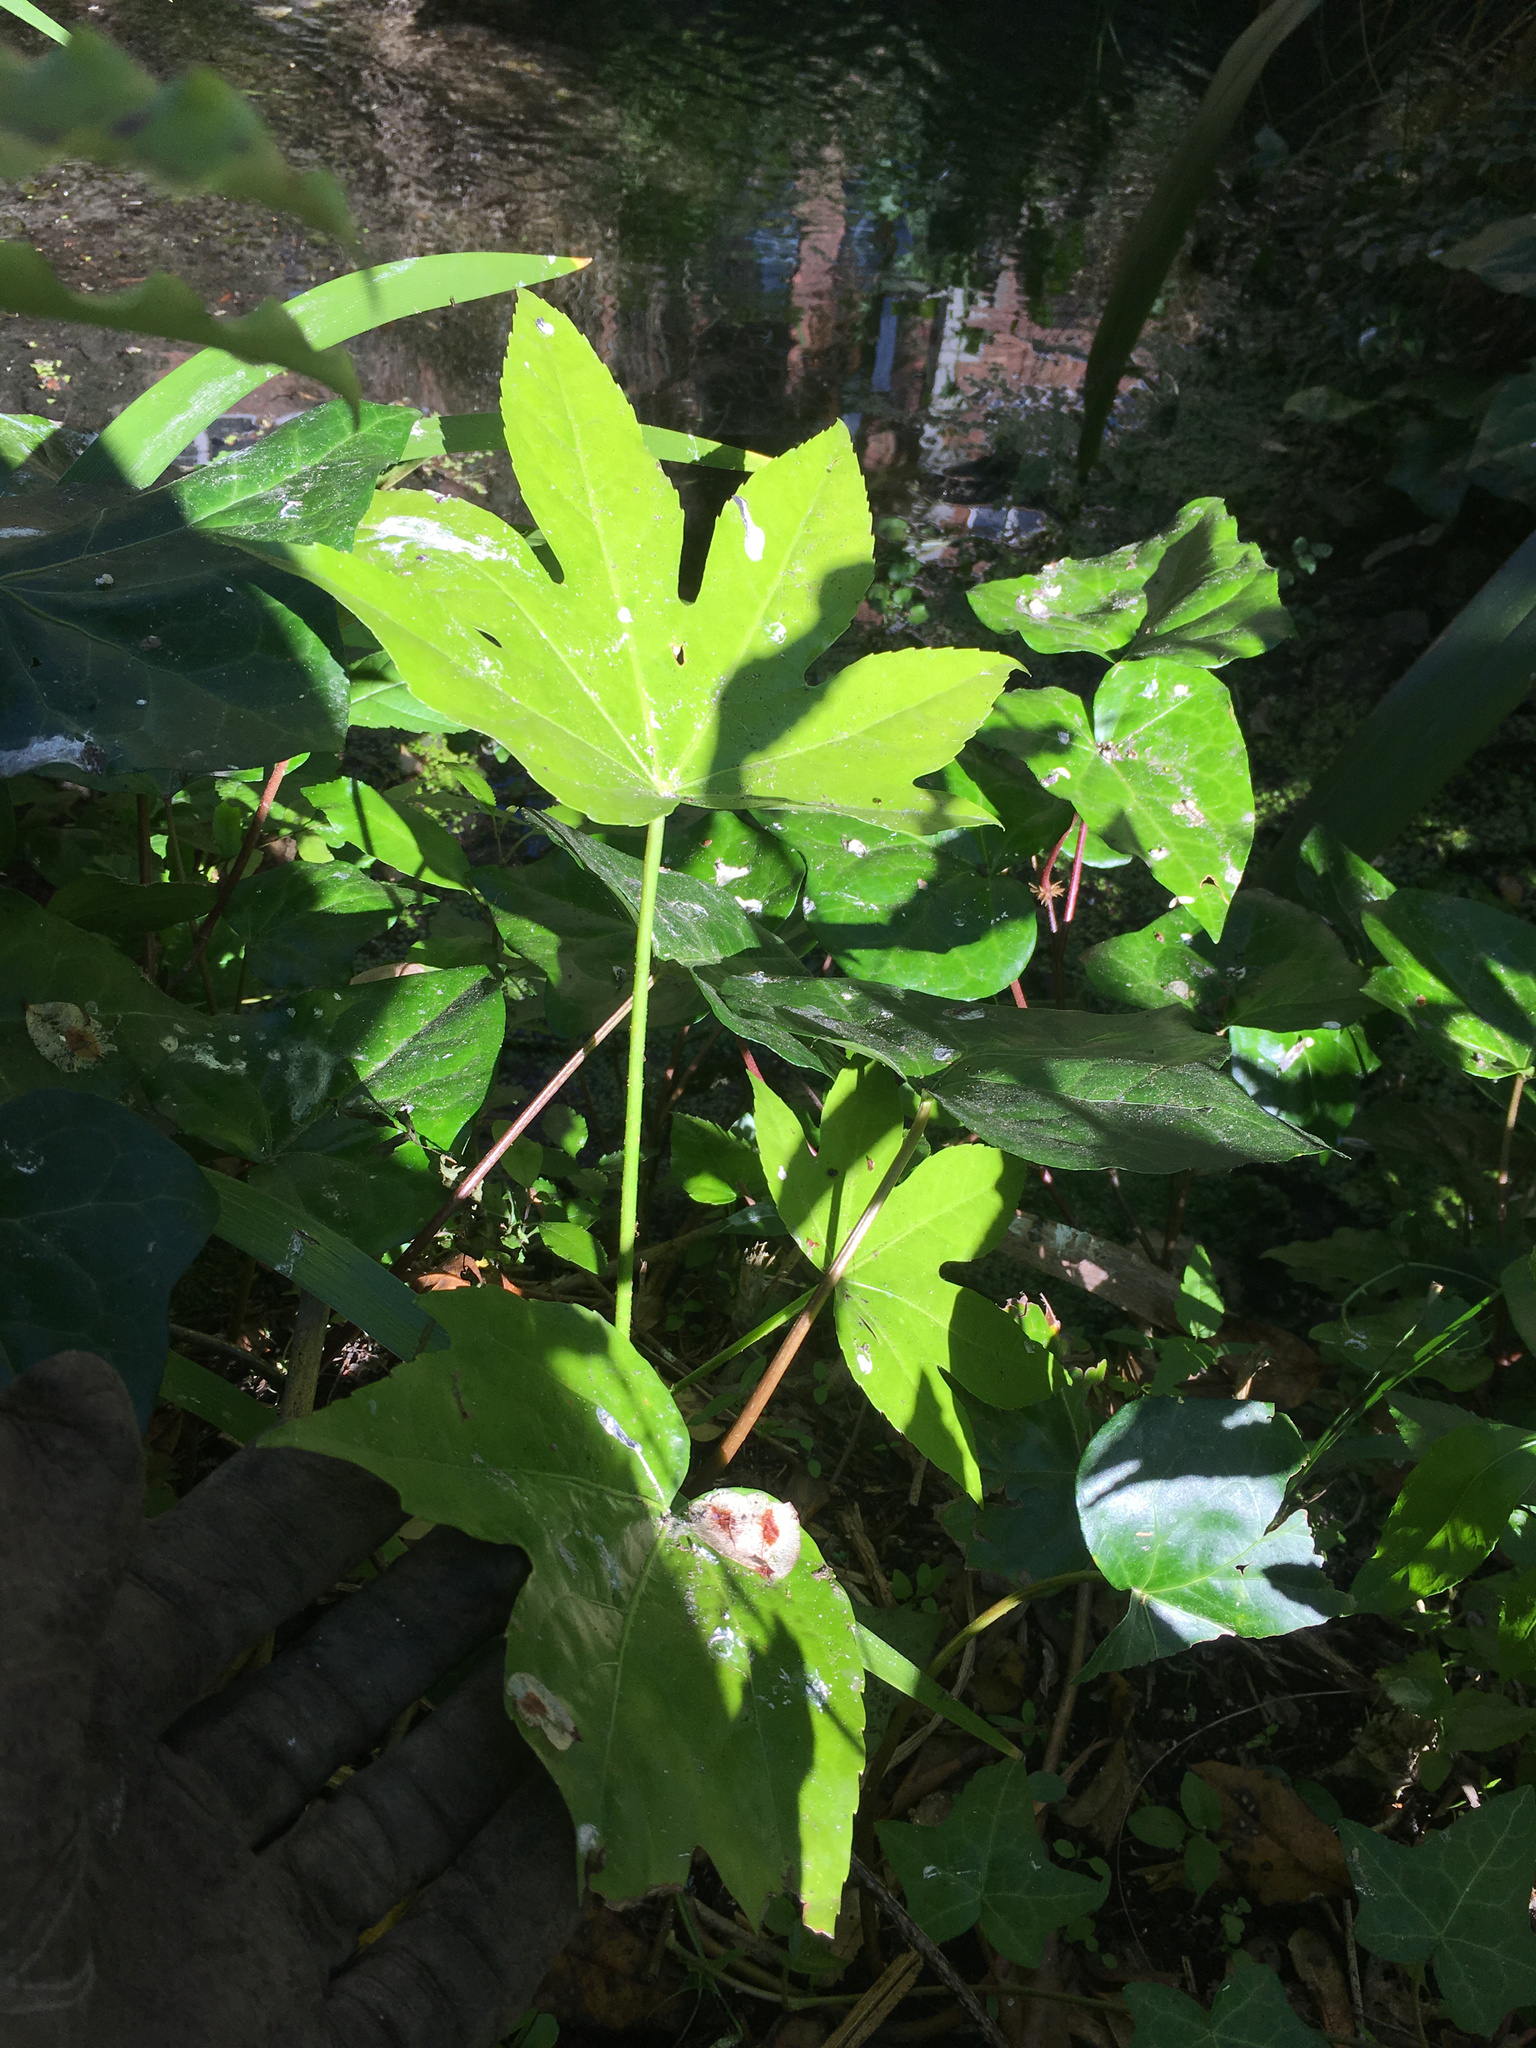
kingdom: Plantae
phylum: Tracheophyta
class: Magnoliopsida
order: Apiales
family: Araliaceae
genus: Fatsia
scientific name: Fatsia japonica
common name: Fatsia
